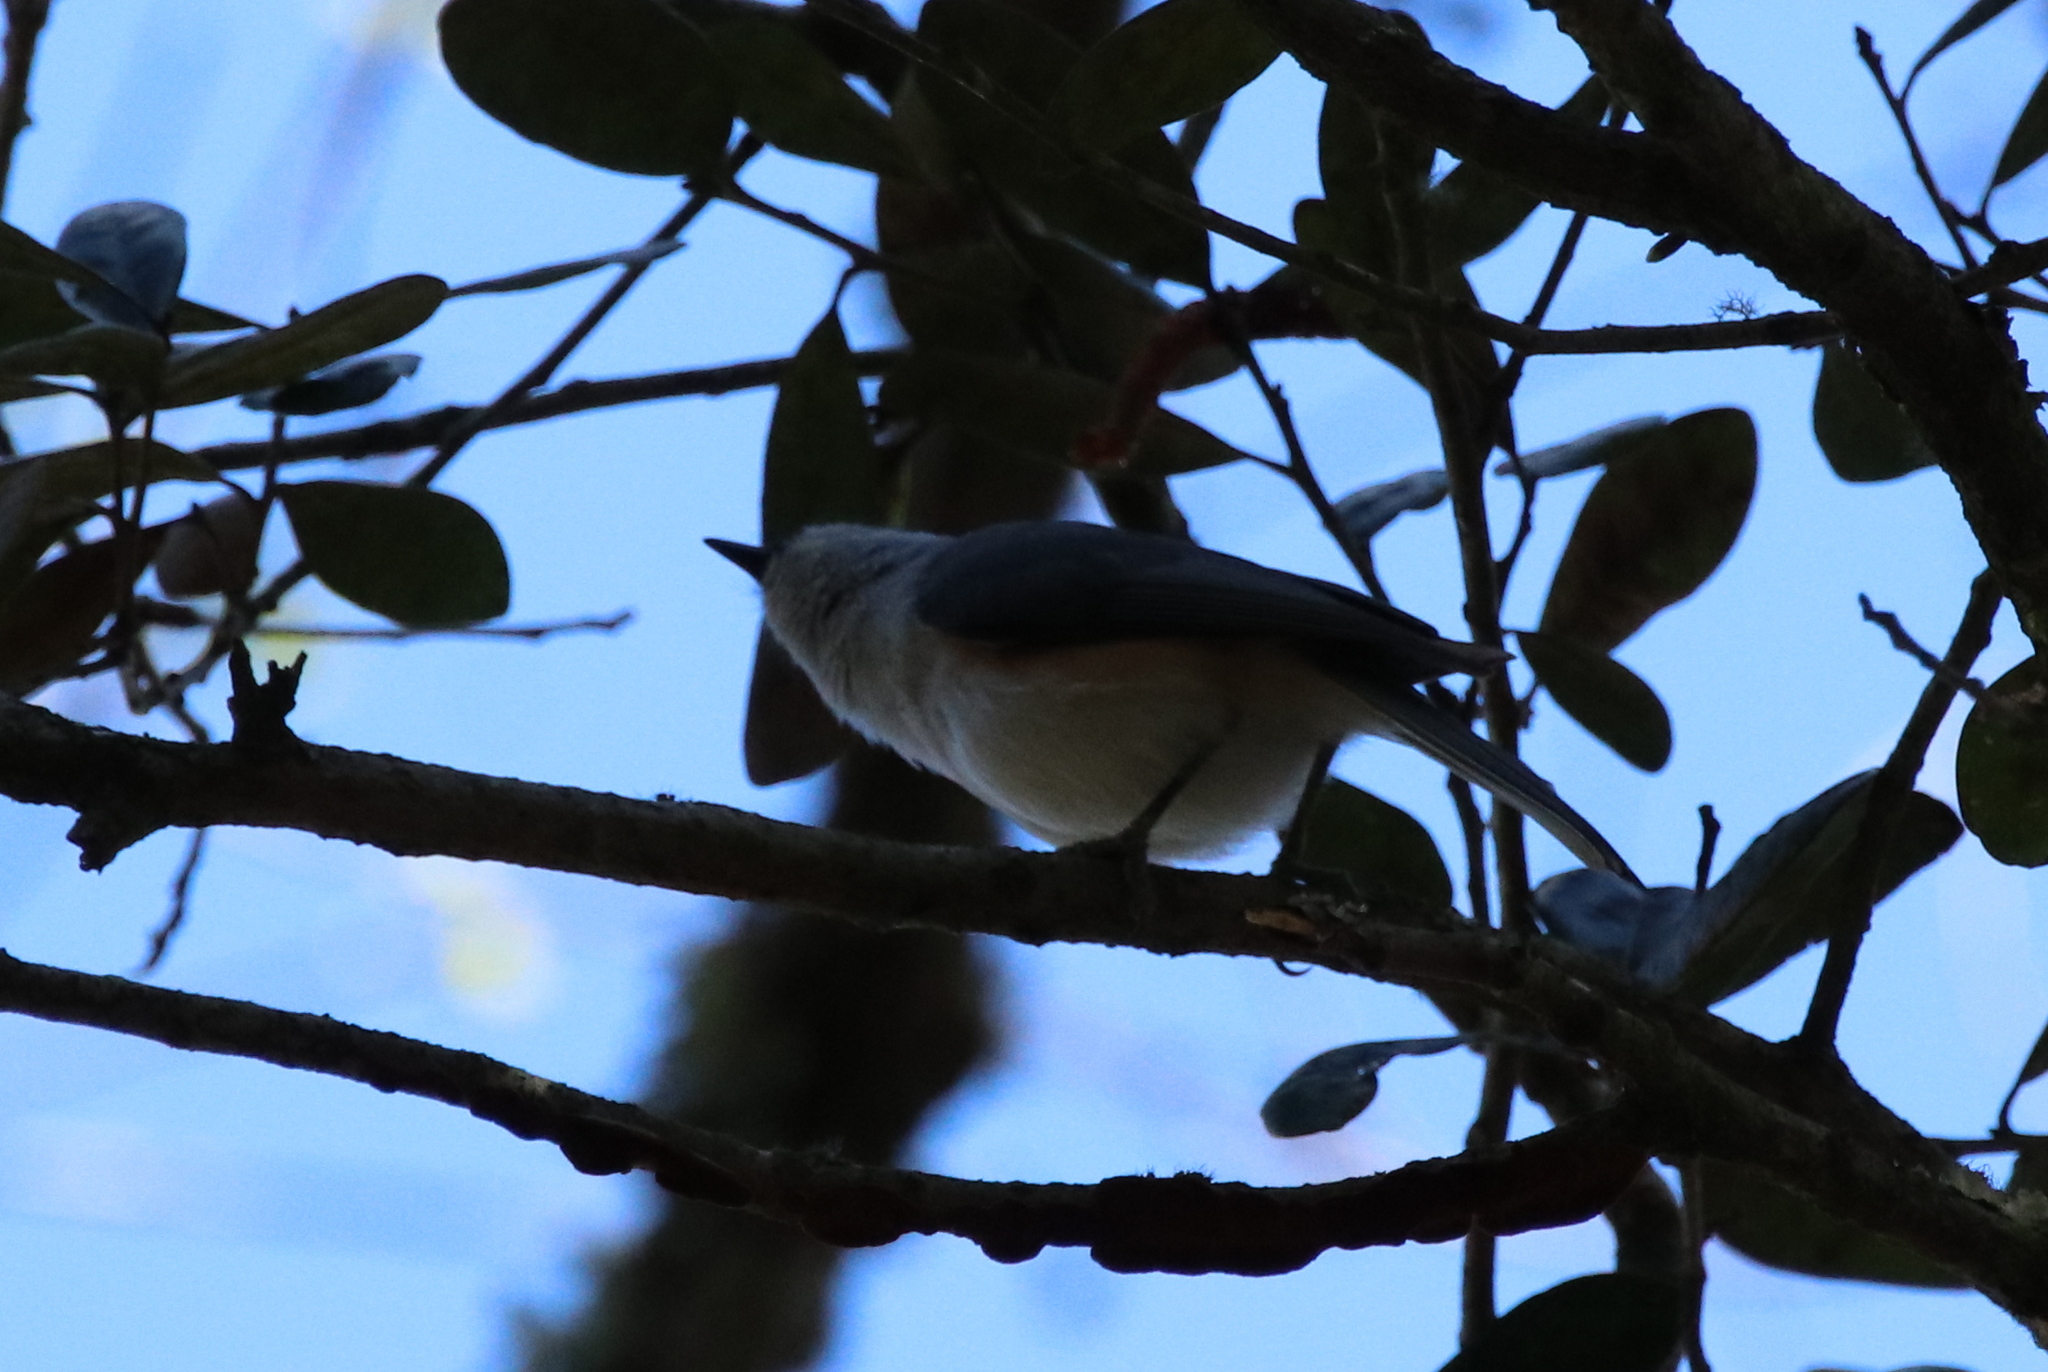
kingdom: Animalia
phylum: Chordata
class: Aves
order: Passeriformes
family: Paridae
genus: Baeolophus
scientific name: Baeolophus bicolor
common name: Tufted titmouse
